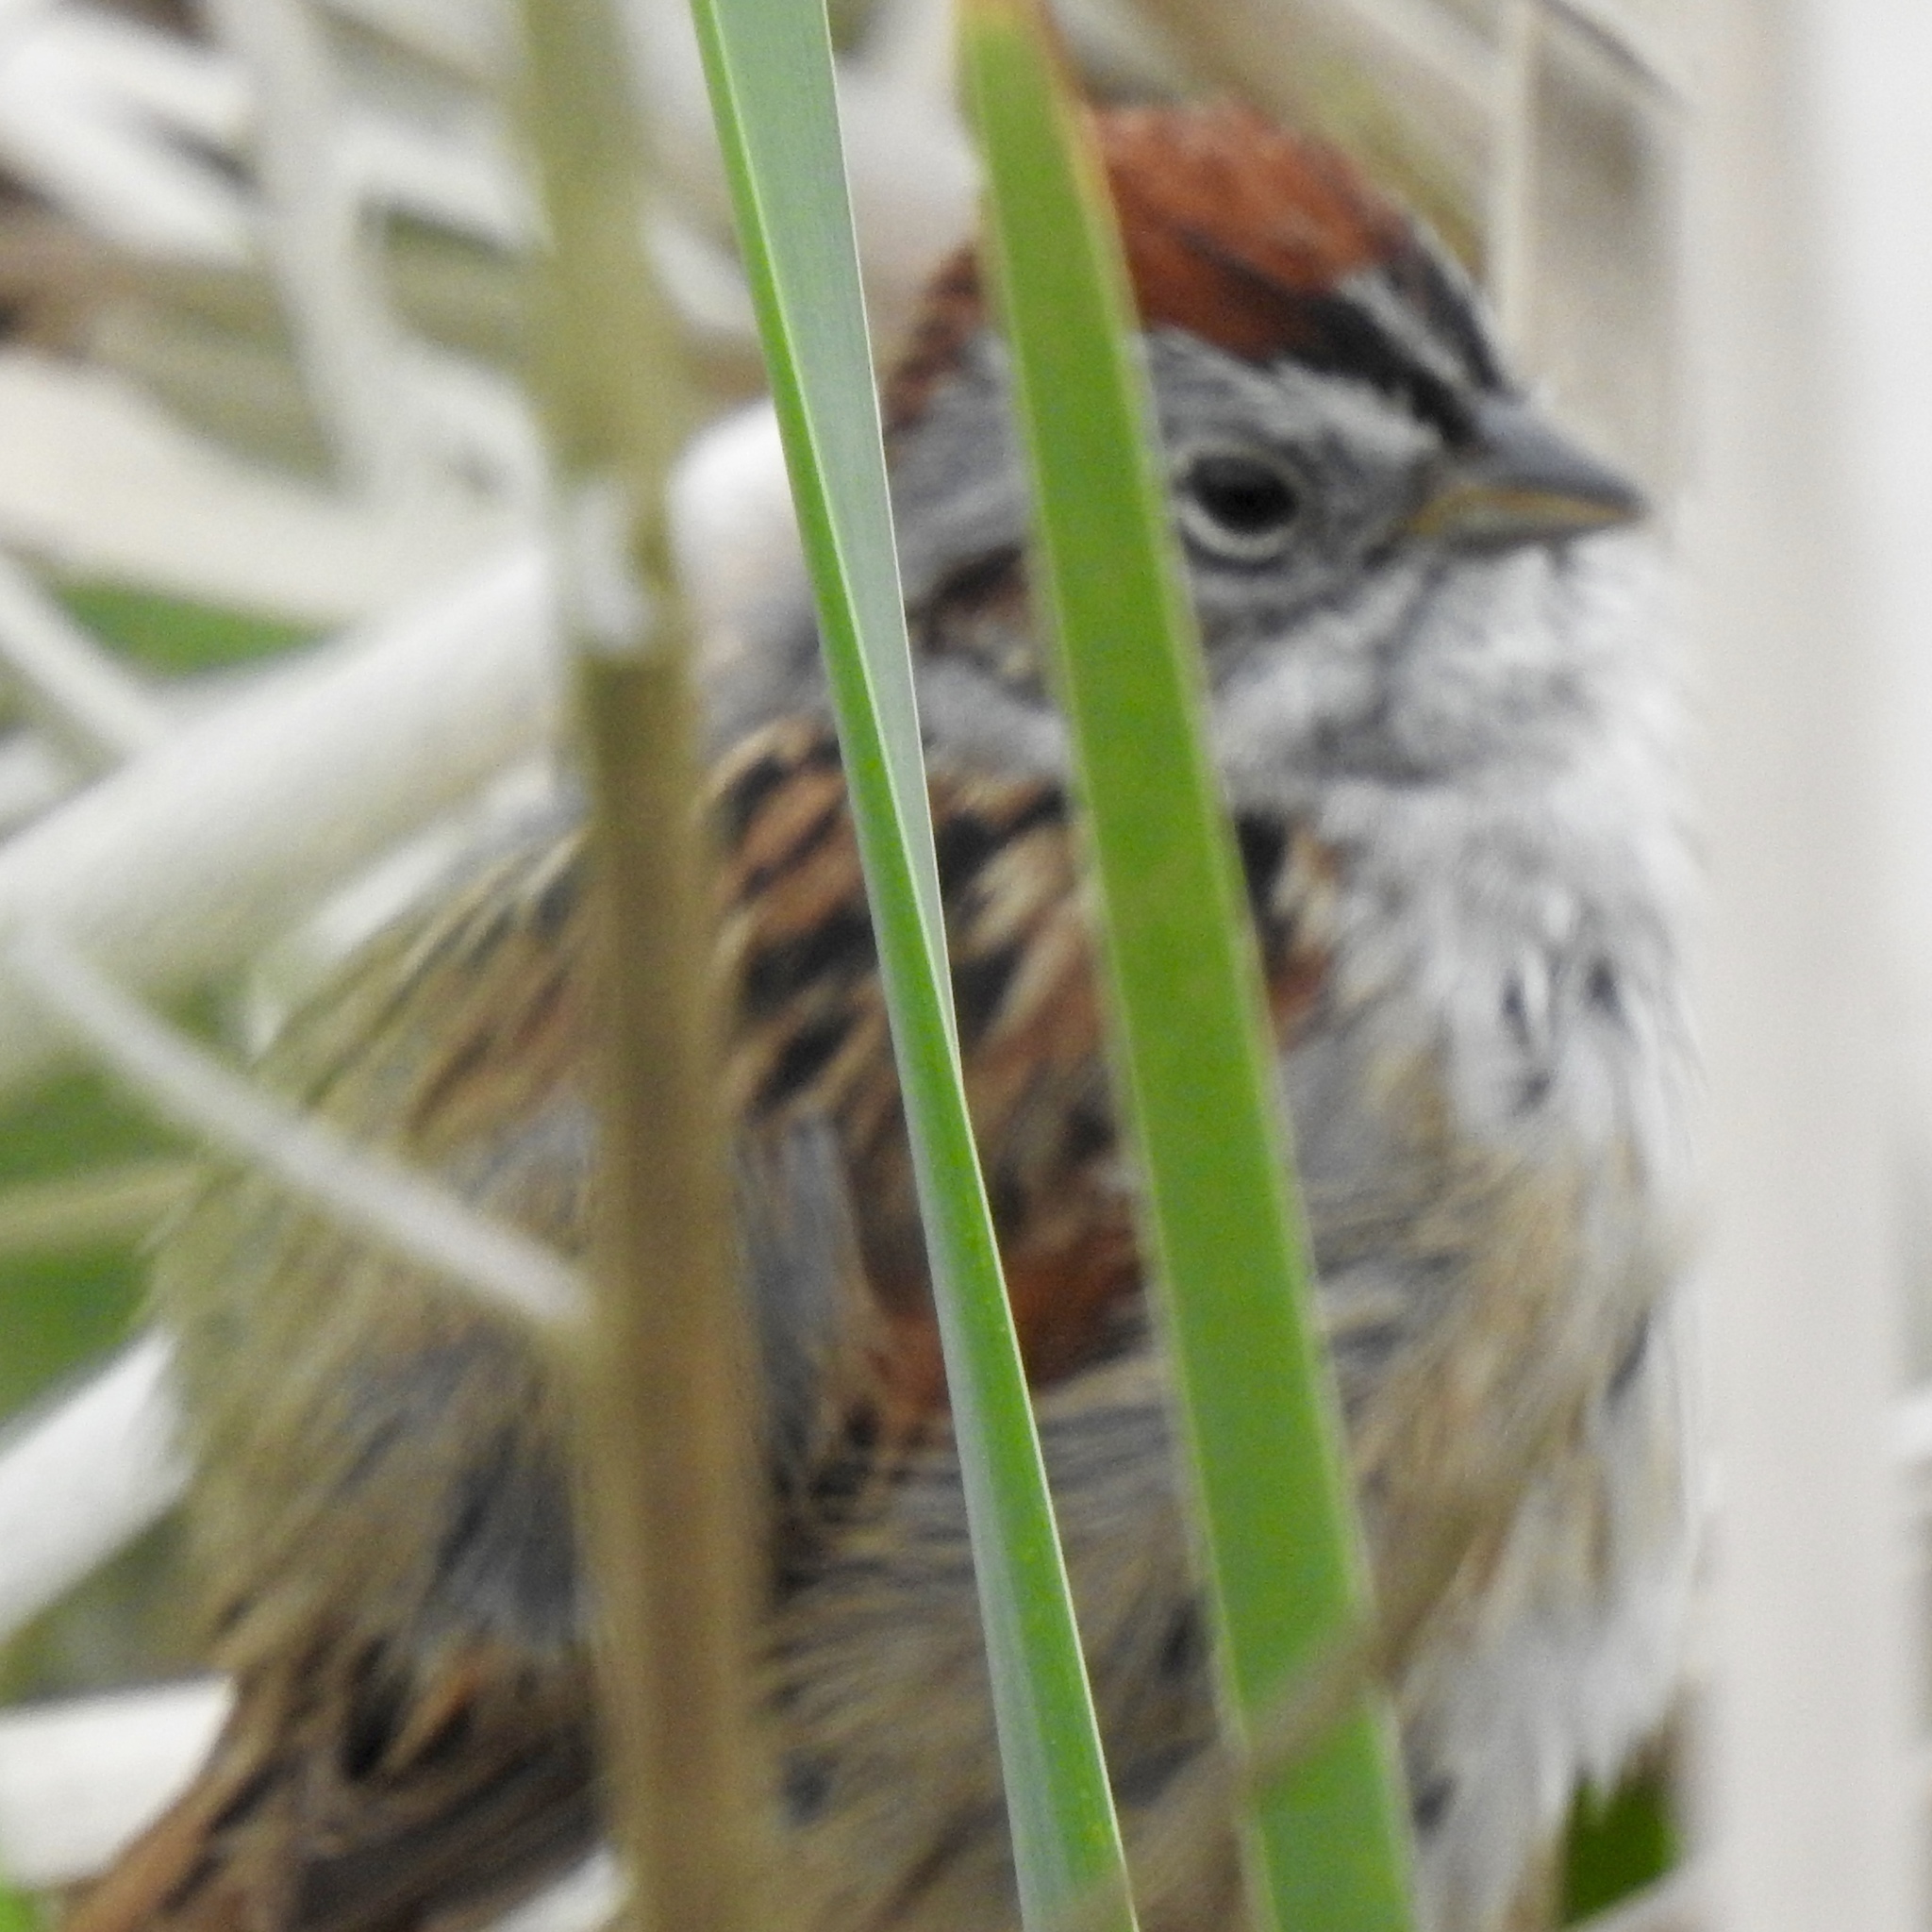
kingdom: Animalia
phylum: Chordata
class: Aves
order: Passeriformes
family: Passerellidae
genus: Melospiza
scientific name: Melospiza georgiana
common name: Swamp sparrow
